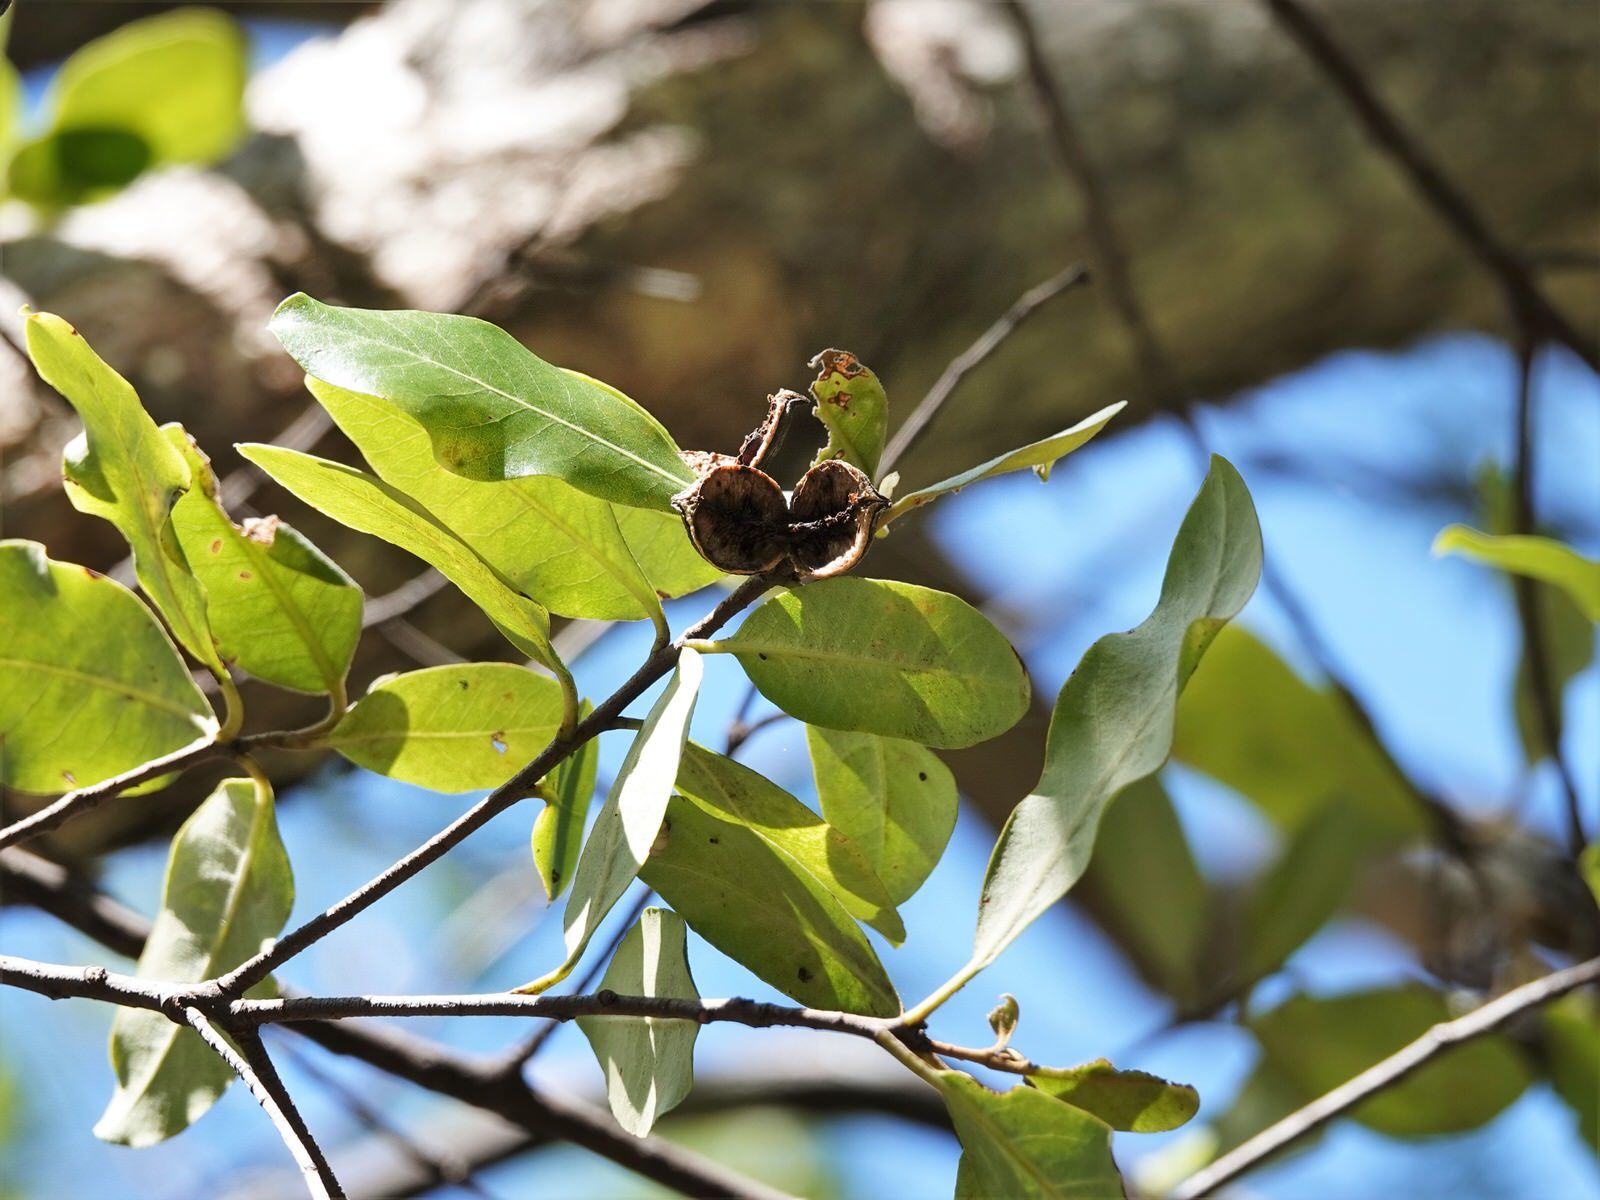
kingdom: Plantae
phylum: Tracheophyta
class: Magnoliopsida
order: Apiales
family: Pittosporaceae
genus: Pittosporum
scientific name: Pittosporum ellipticum
